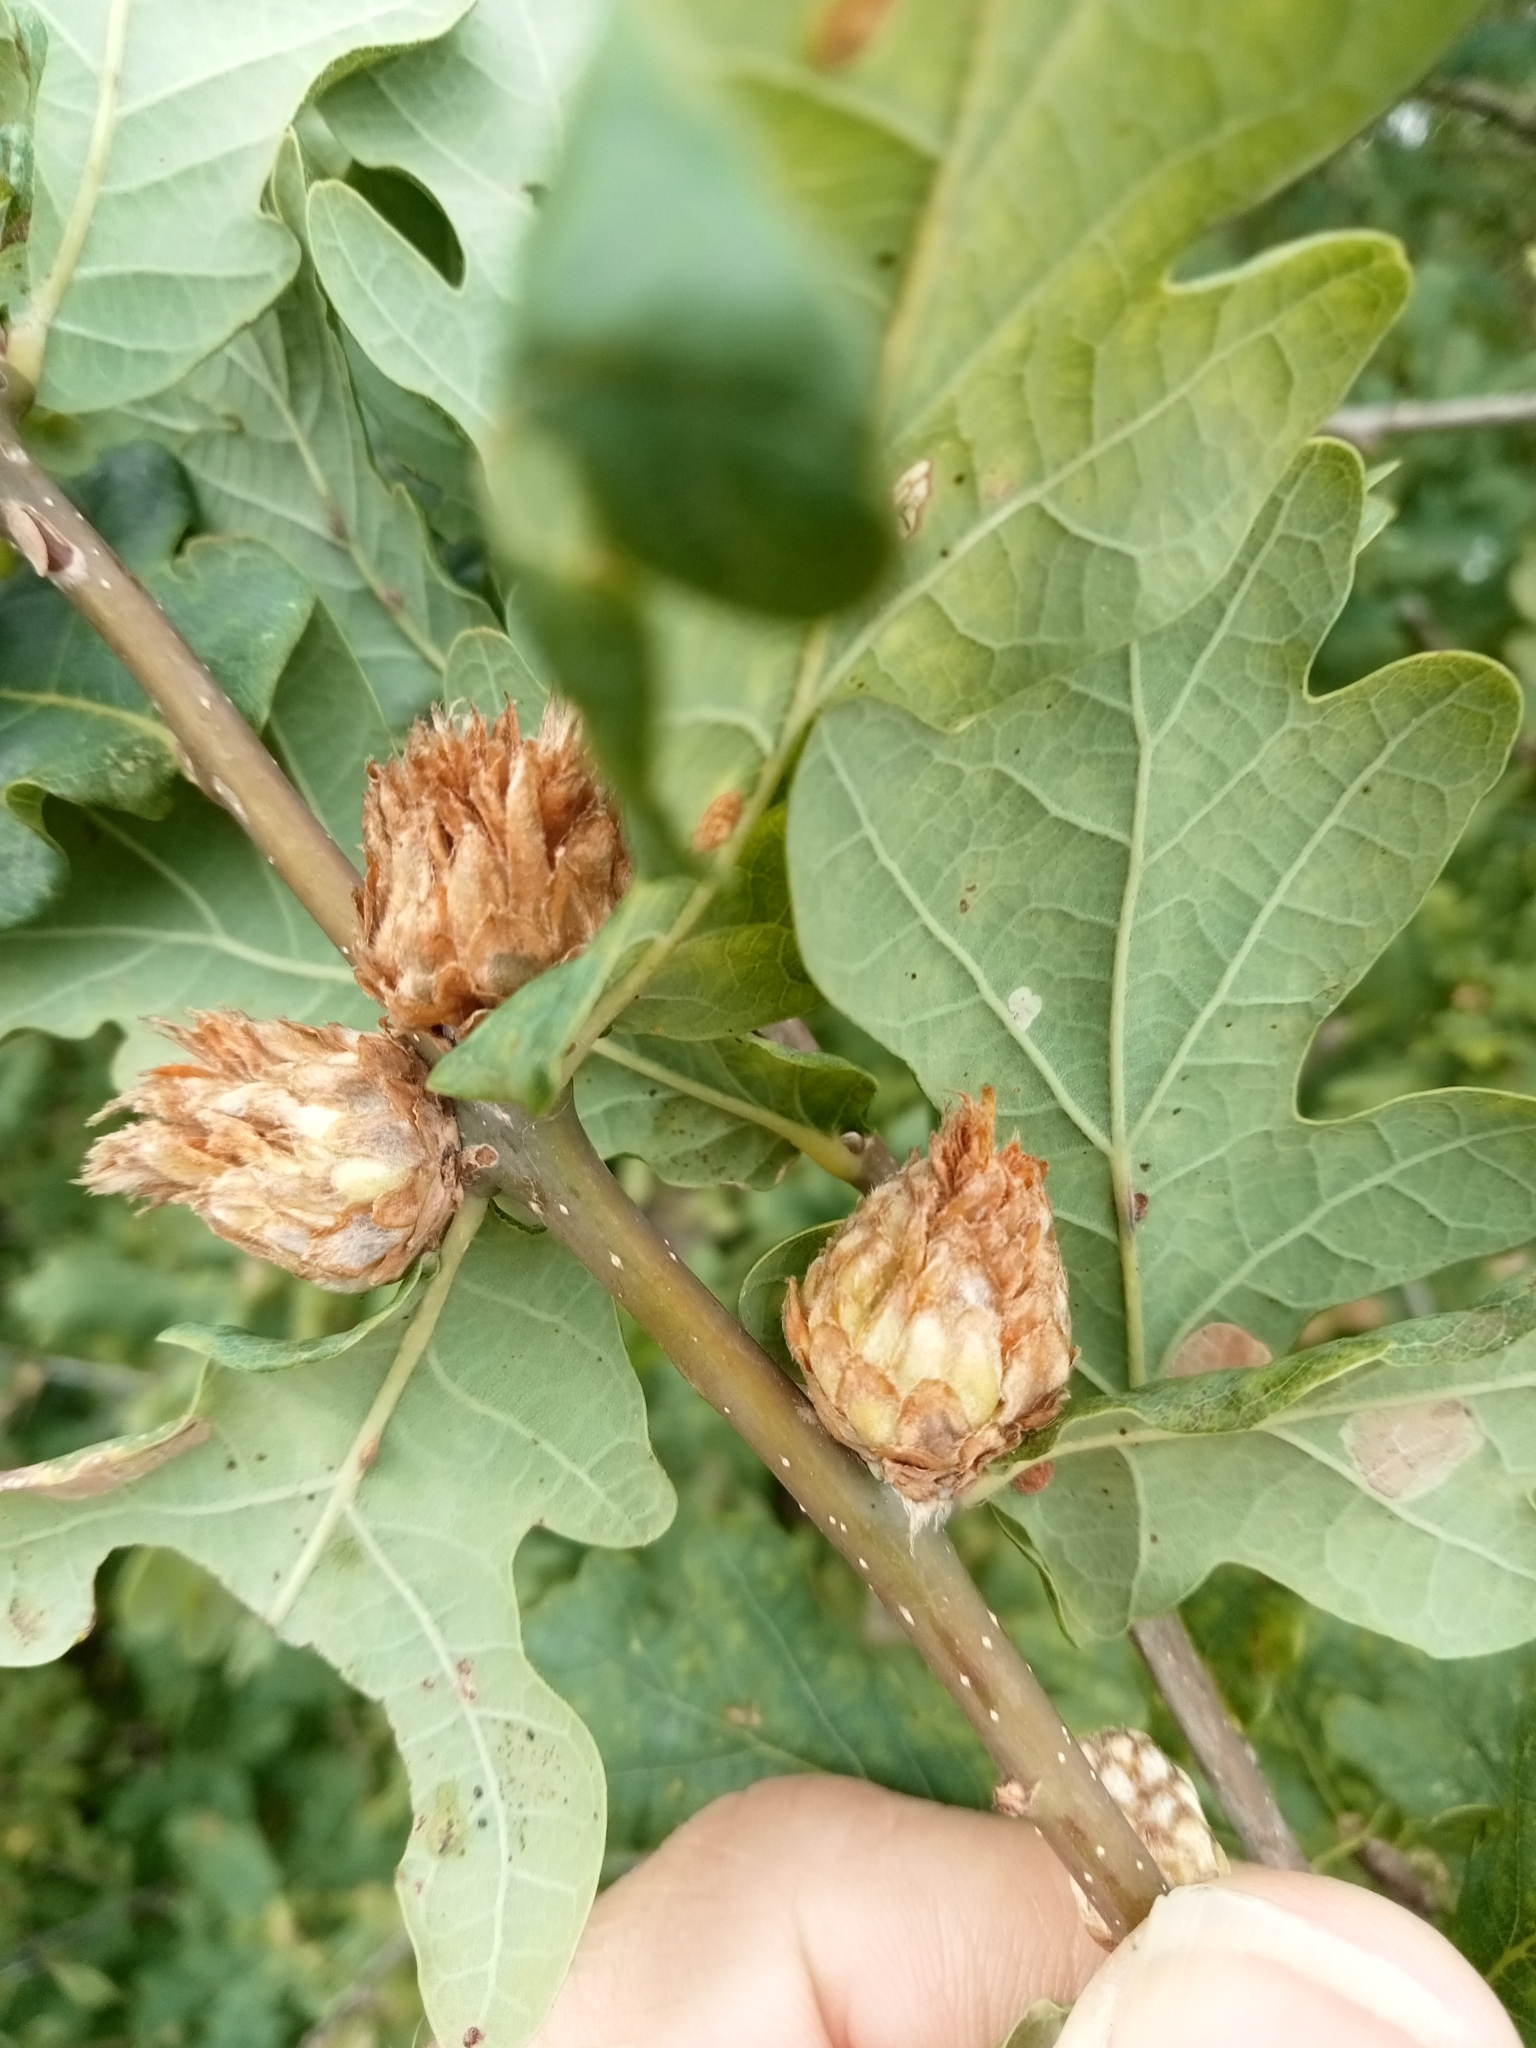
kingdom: Animalia
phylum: Arthropoda
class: Insecta
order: Hymenoptera
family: Cynipidae
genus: Andricus
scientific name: Andricus foecundatrix
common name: Artichoke gall
